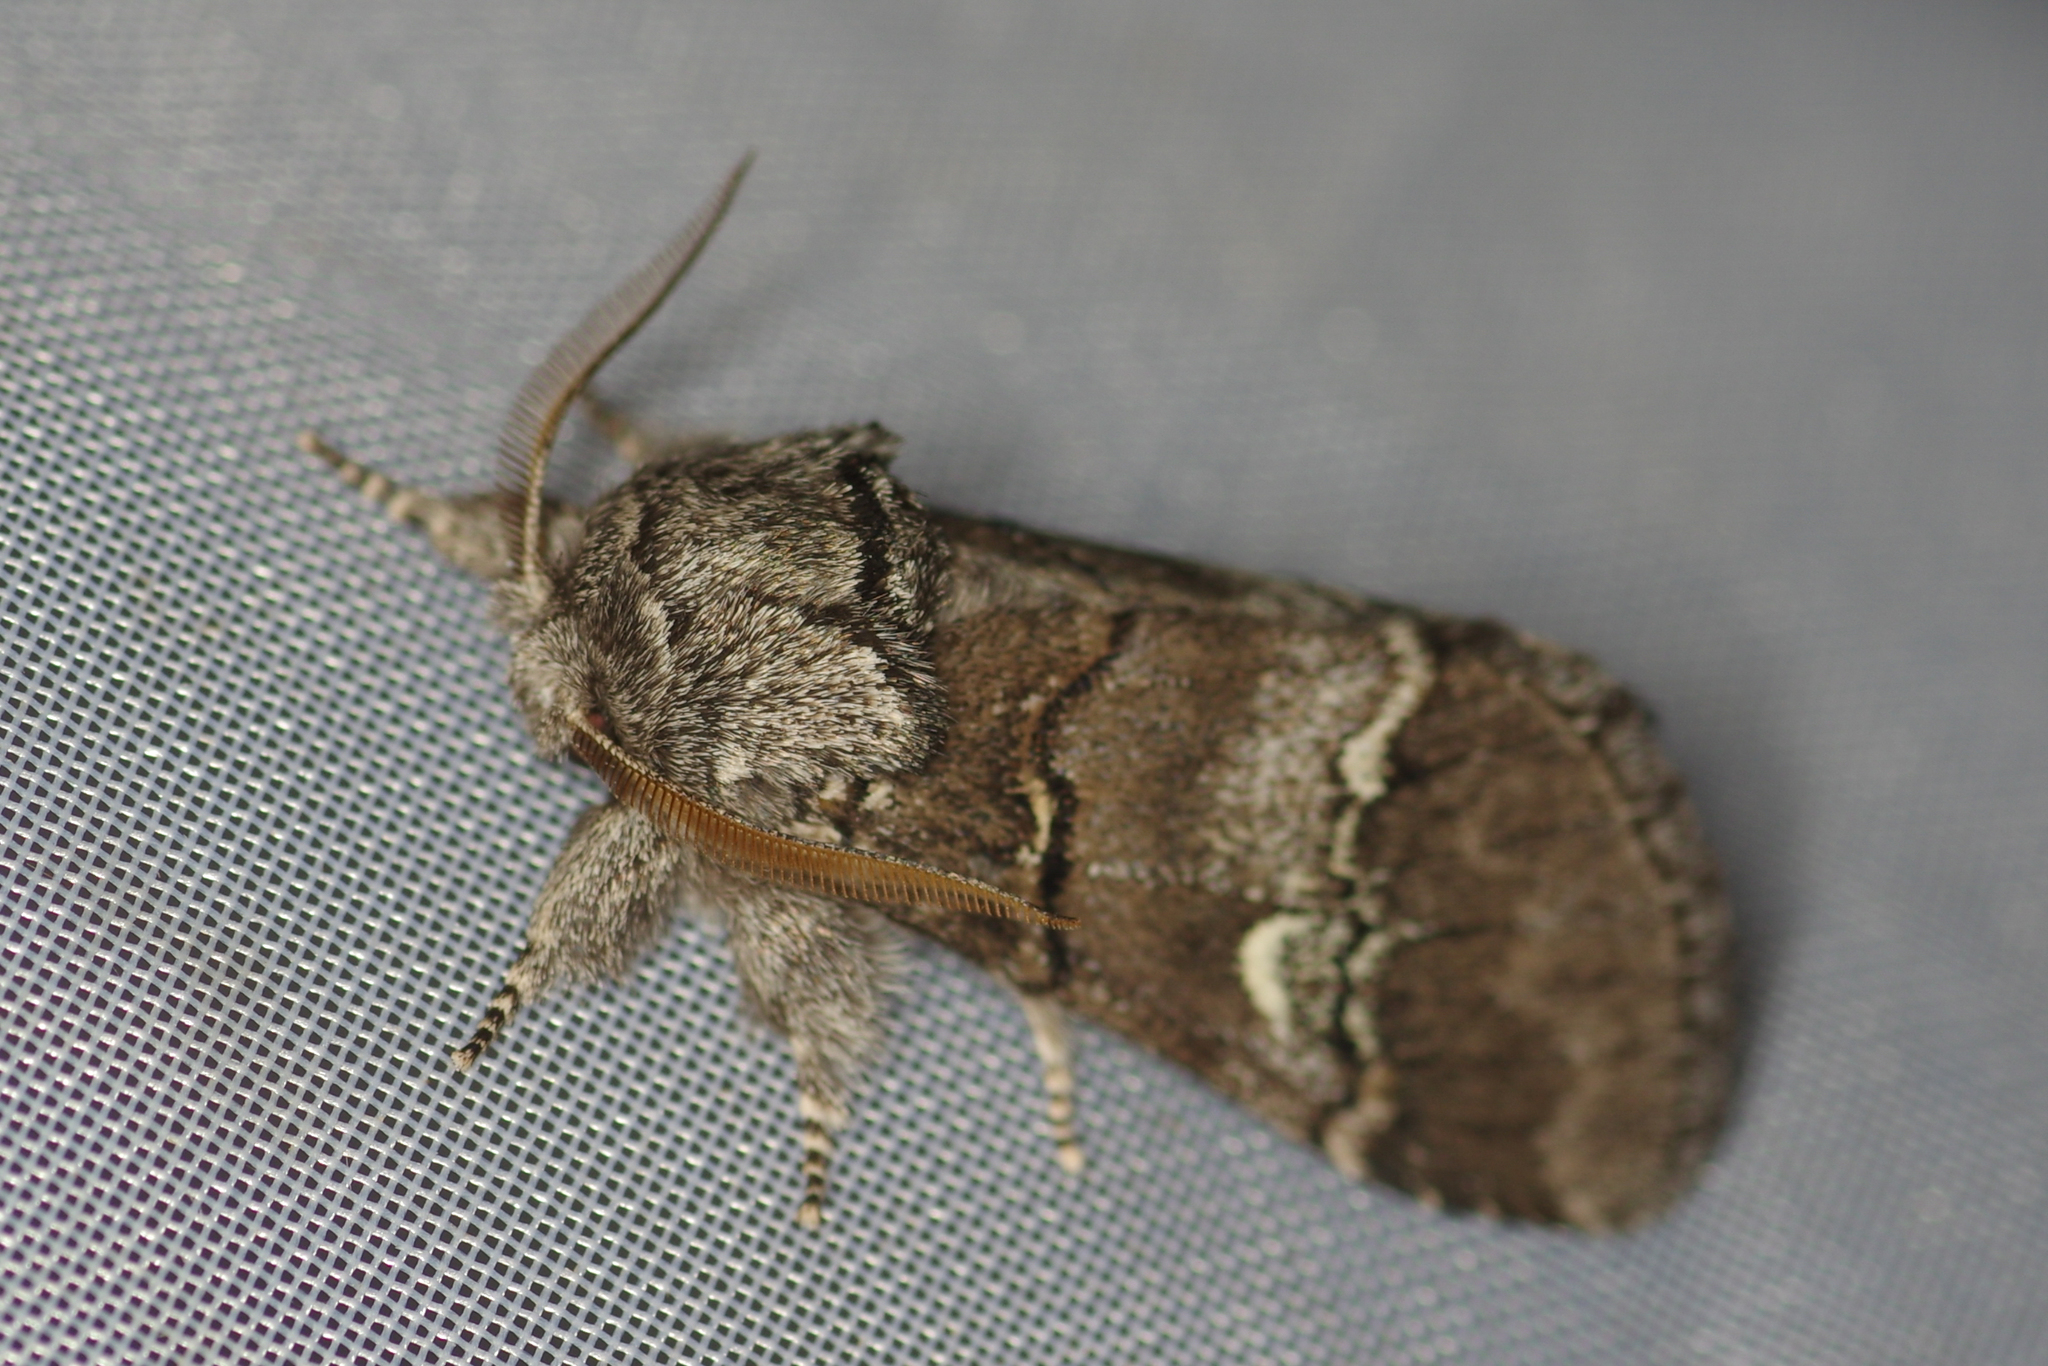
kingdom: Animalia
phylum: Arthropoda
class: Insecta
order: Lepidoptera
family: Notodontidae
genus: Drymonia
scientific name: Drymonia querna
